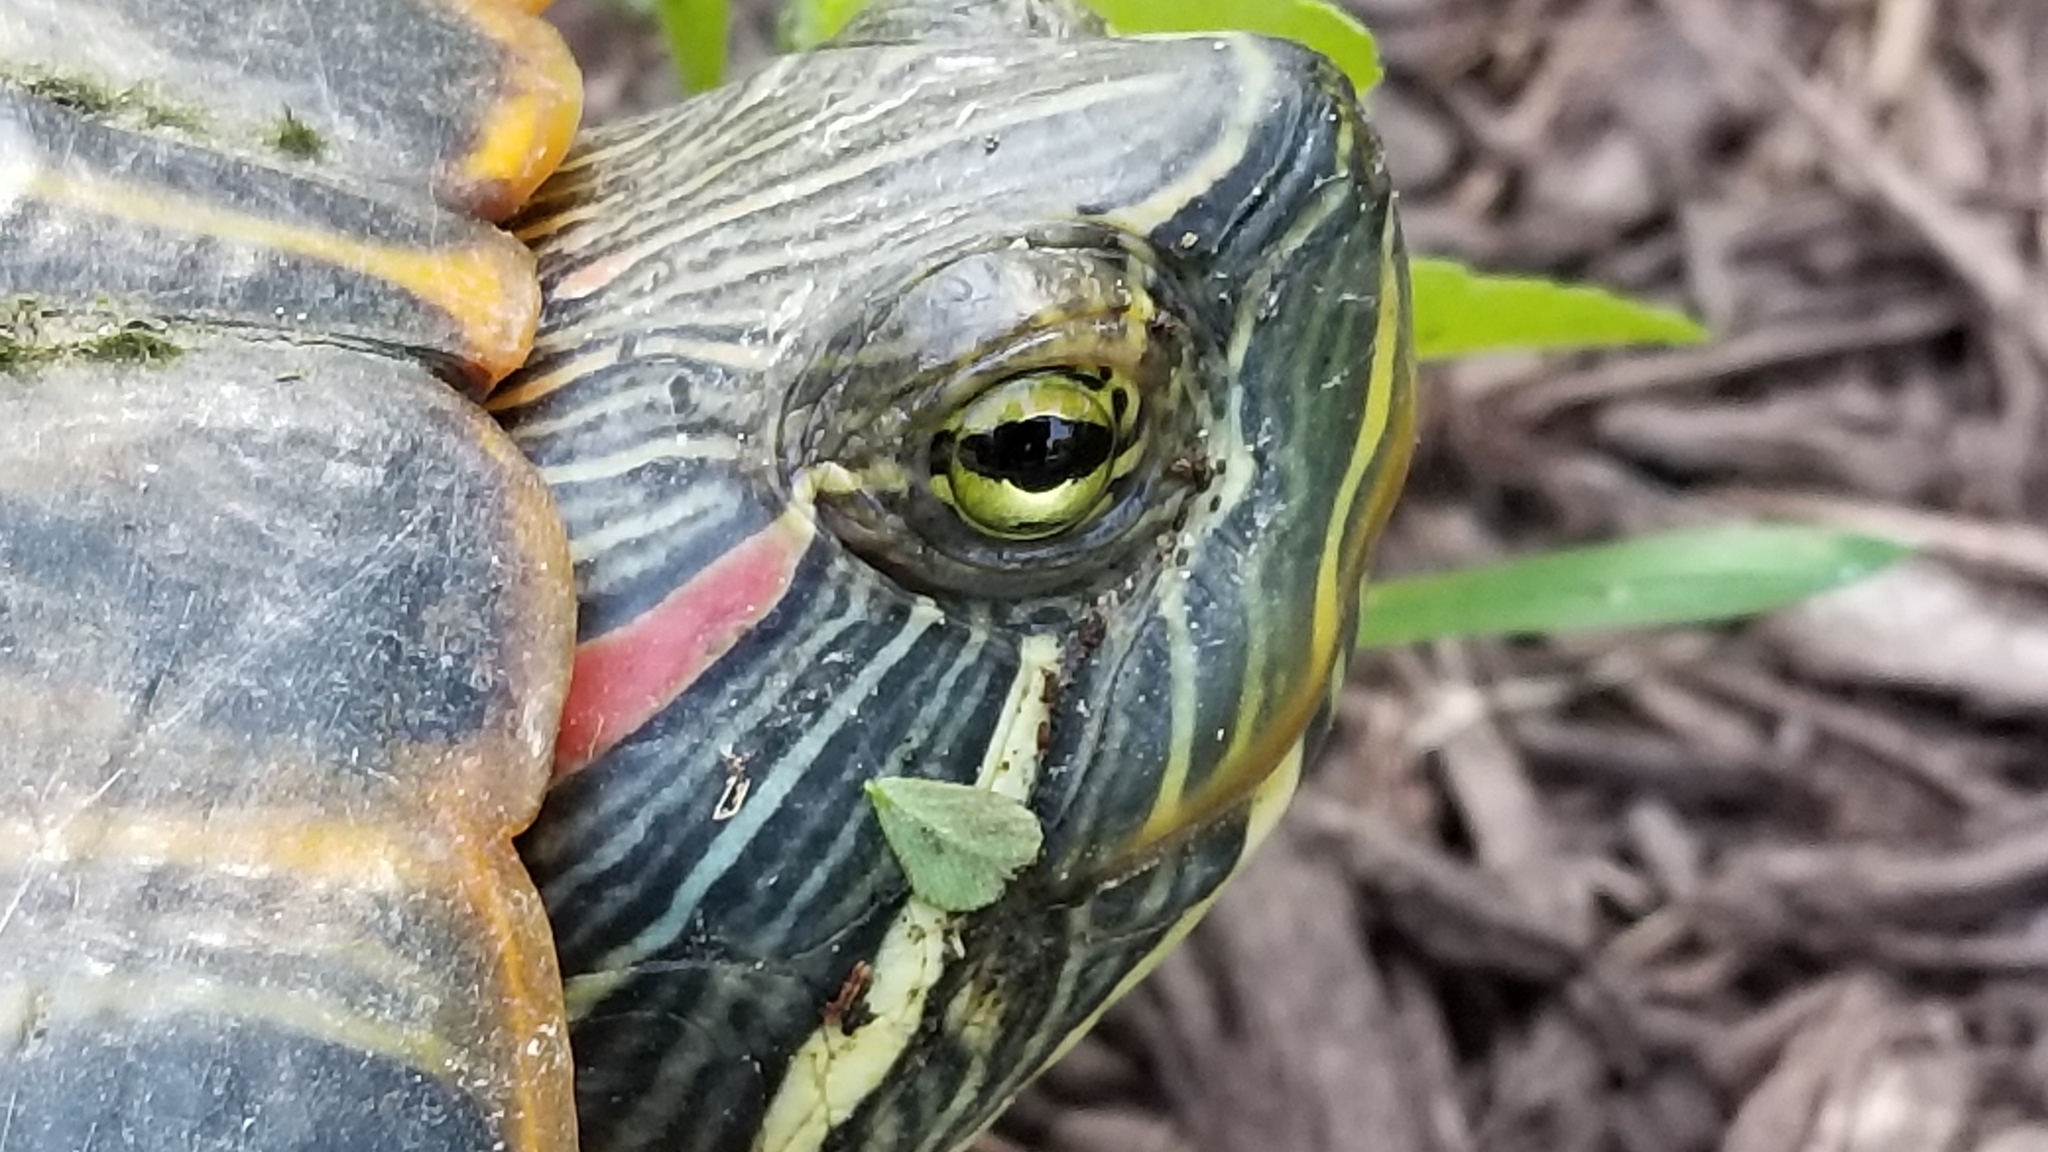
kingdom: Animalia
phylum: Chordata
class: Testudines
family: Emydidae
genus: Trachemys
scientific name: Trachemys scripta
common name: Slider
